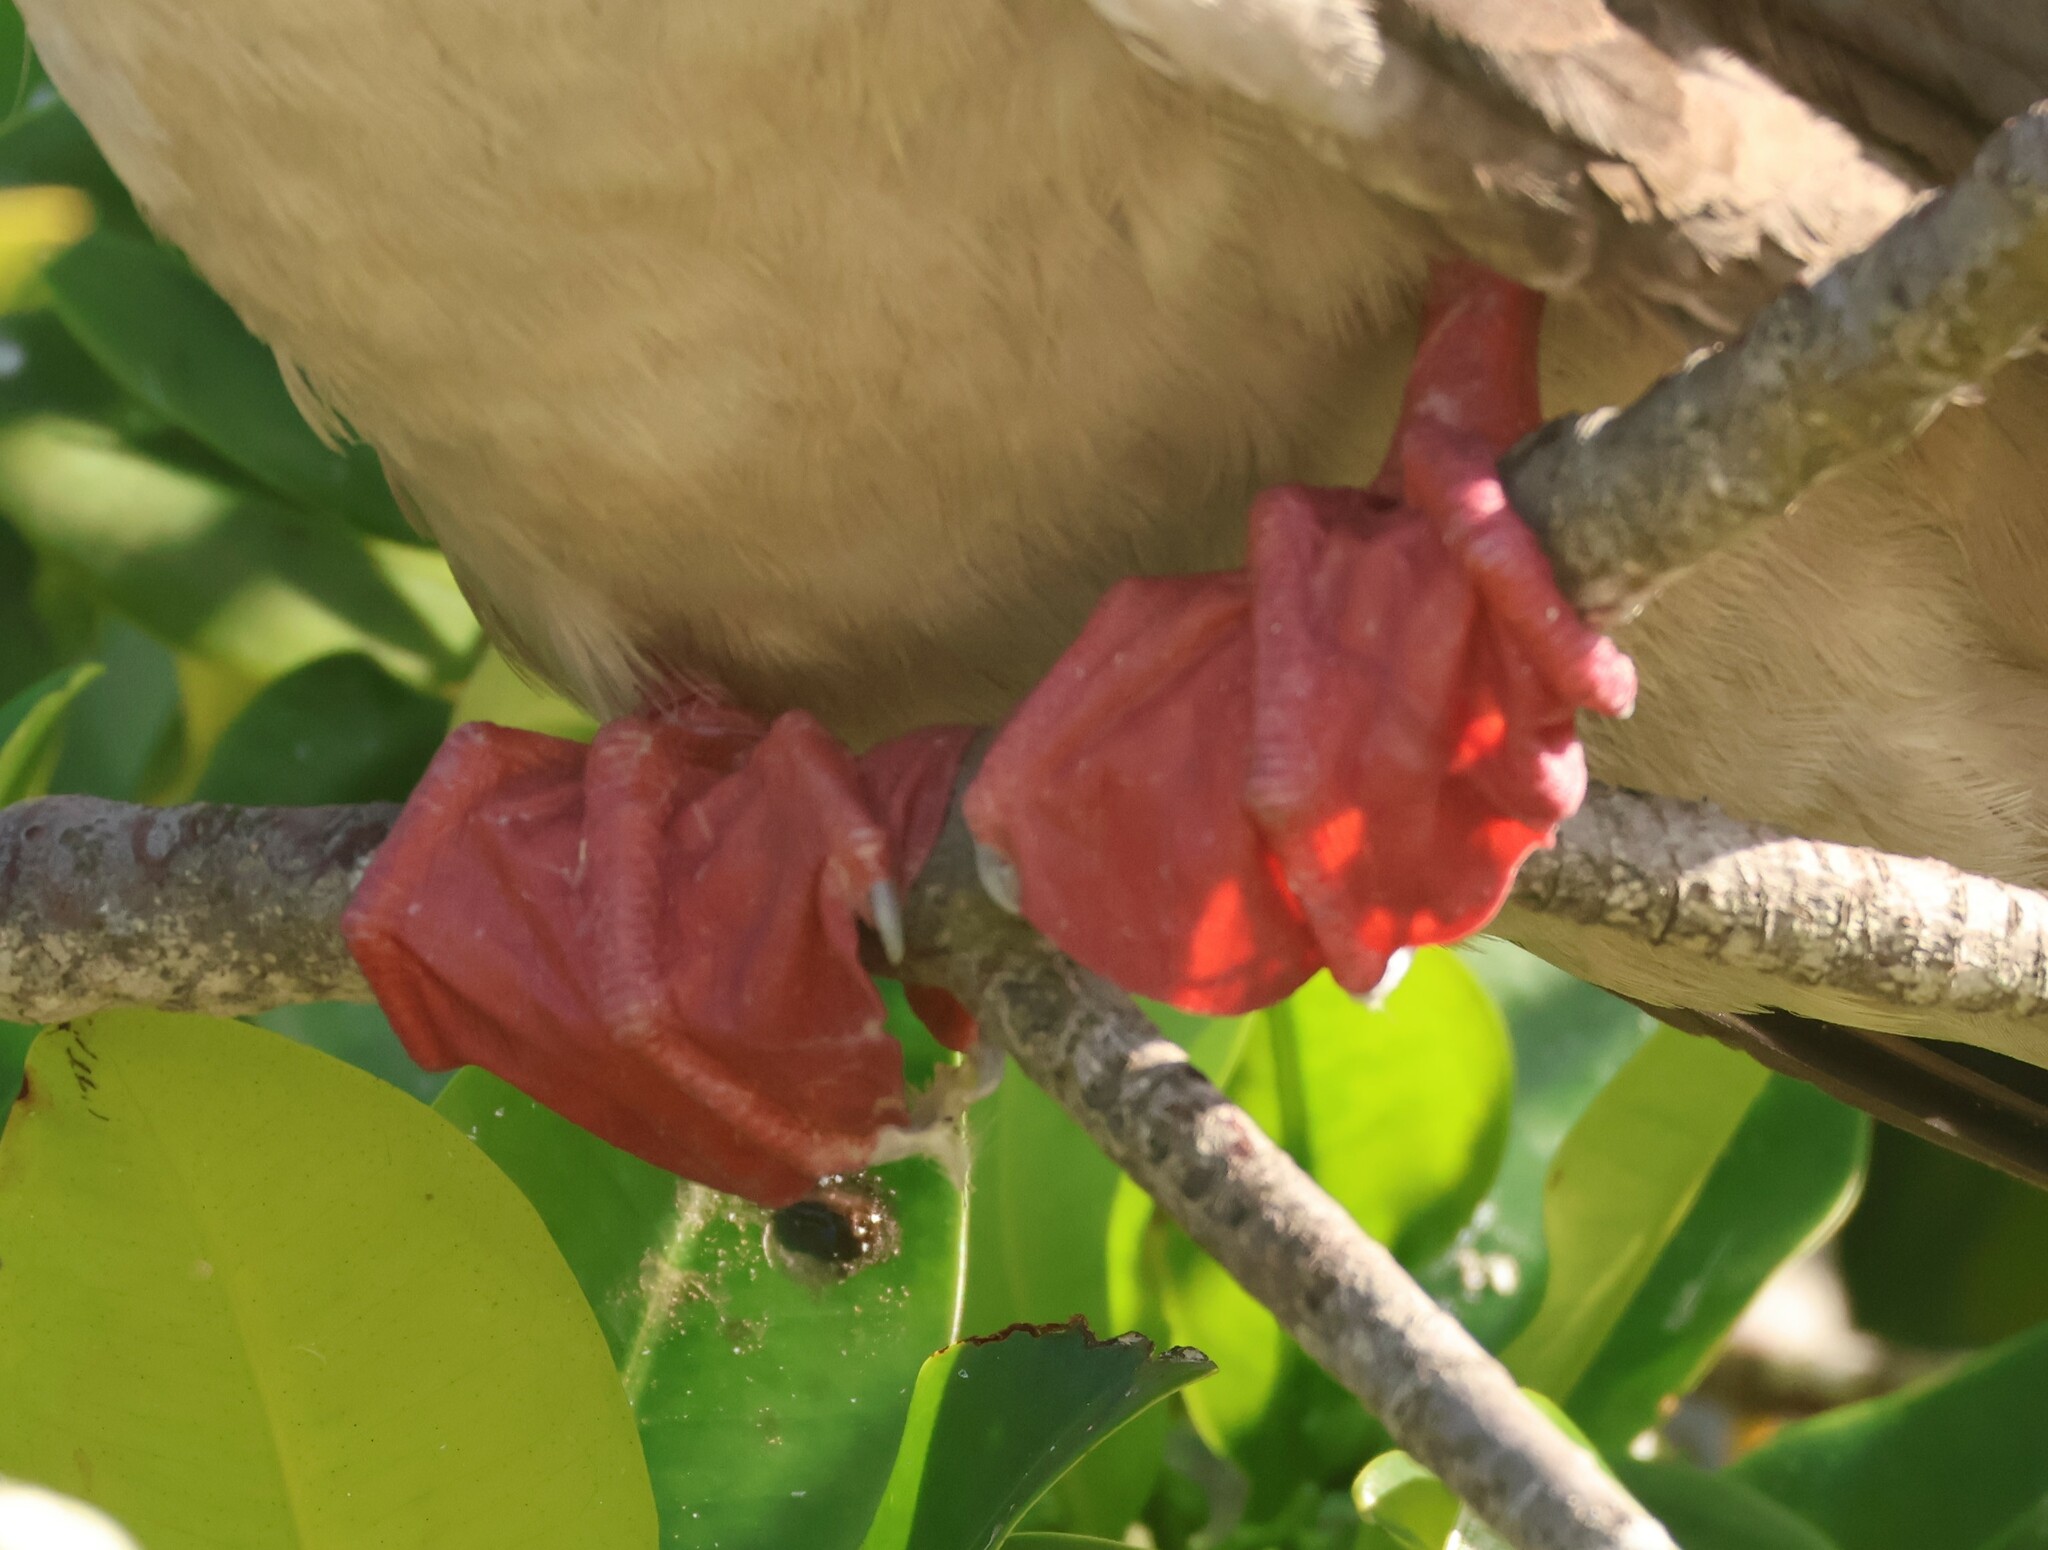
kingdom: Animalia
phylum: Chordata
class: Aves
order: Suliformes
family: Sulidae
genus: Sula
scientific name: Sula sula
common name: Red-footed booby
